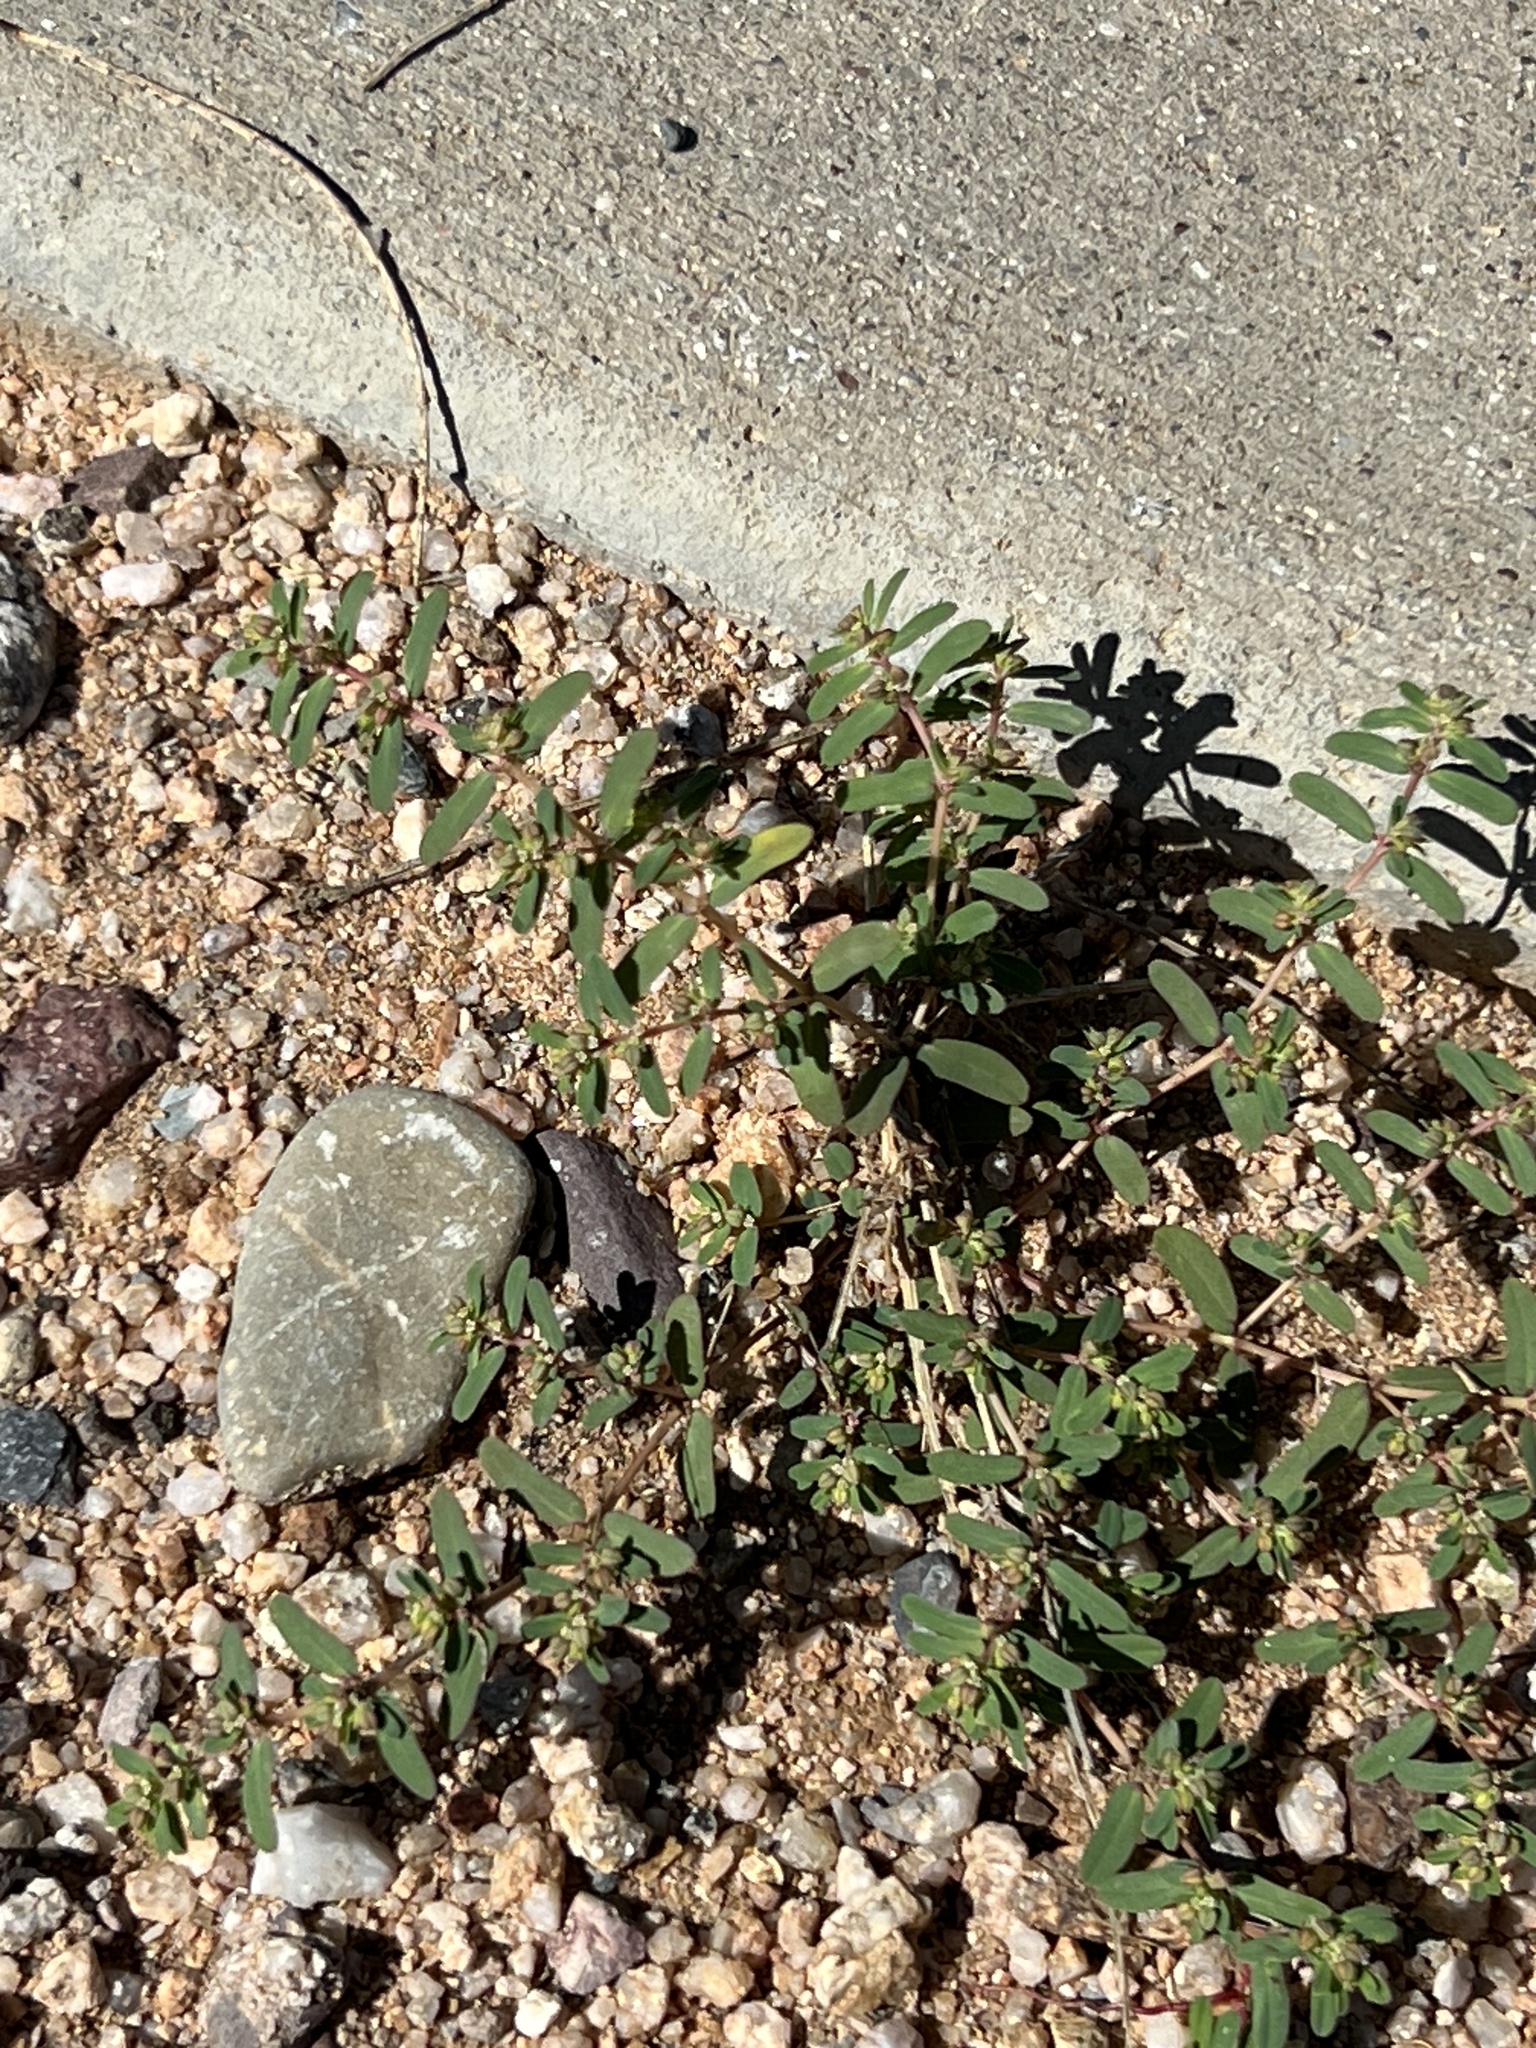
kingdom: Plantae
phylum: Tracheophyta
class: Magnoliopsida
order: Malpighiales
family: Euphorbiaceae
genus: Euphorbia
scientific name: Euphorbia serpillifolia
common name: Thyme-leaf spurge
